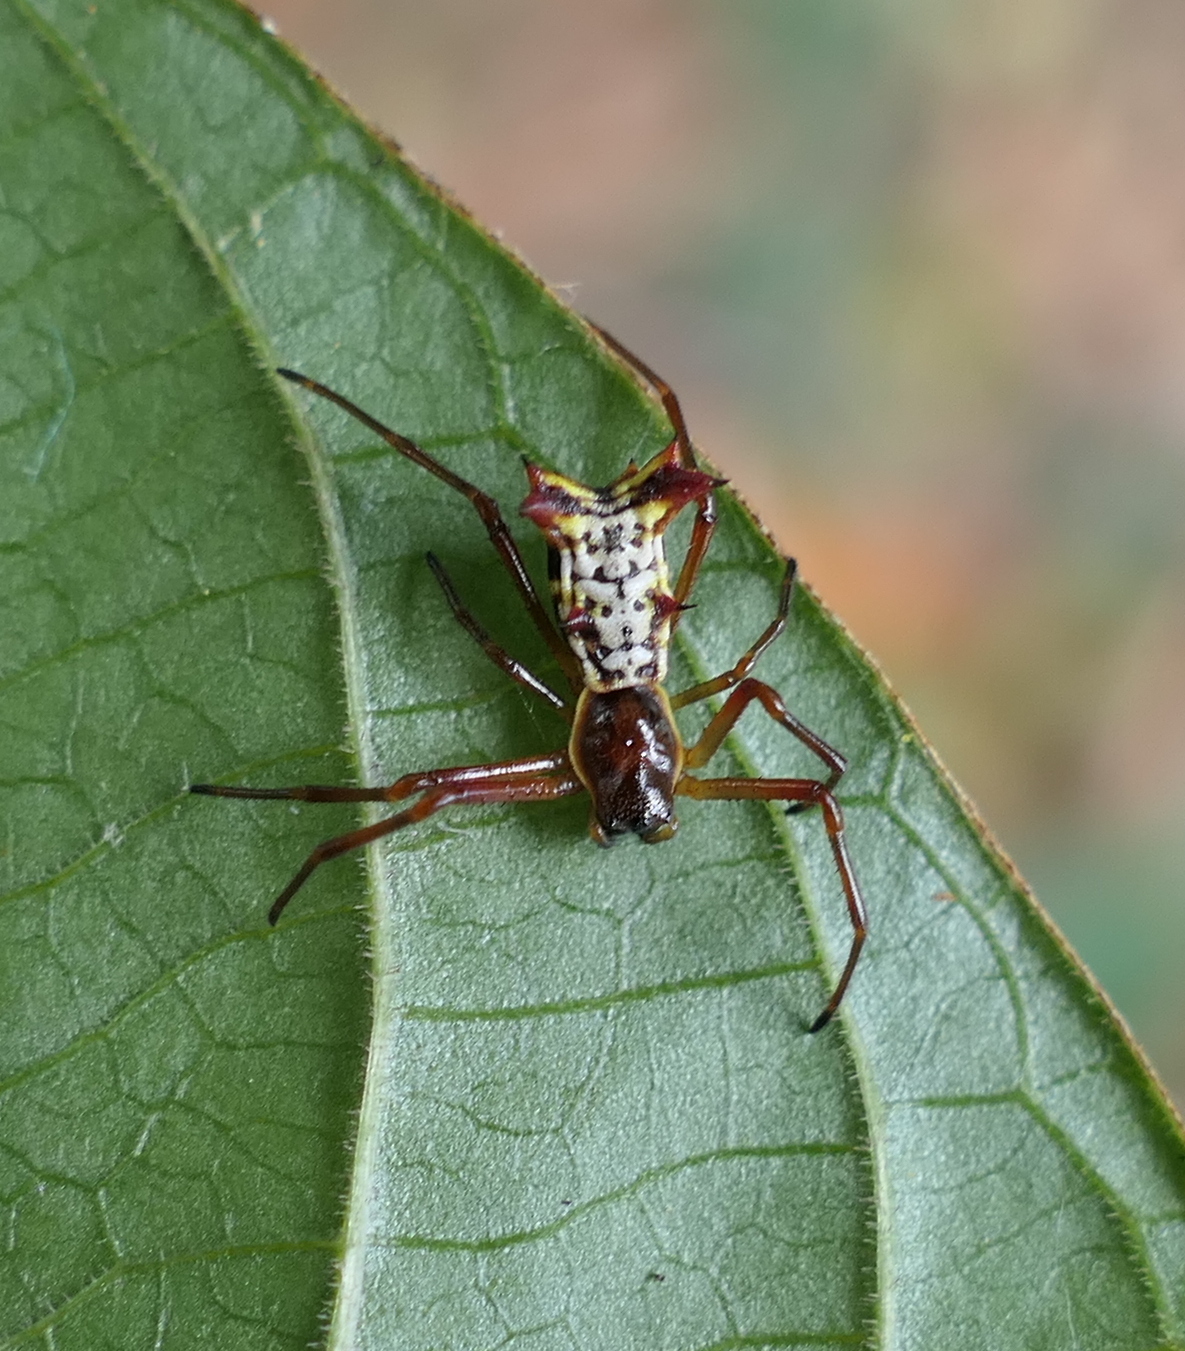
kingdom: Animalia
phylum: Arthropoda
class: Arachnida
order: Araneae
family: Araneidae
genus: Micrathena
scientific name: Micrathena fissispina
